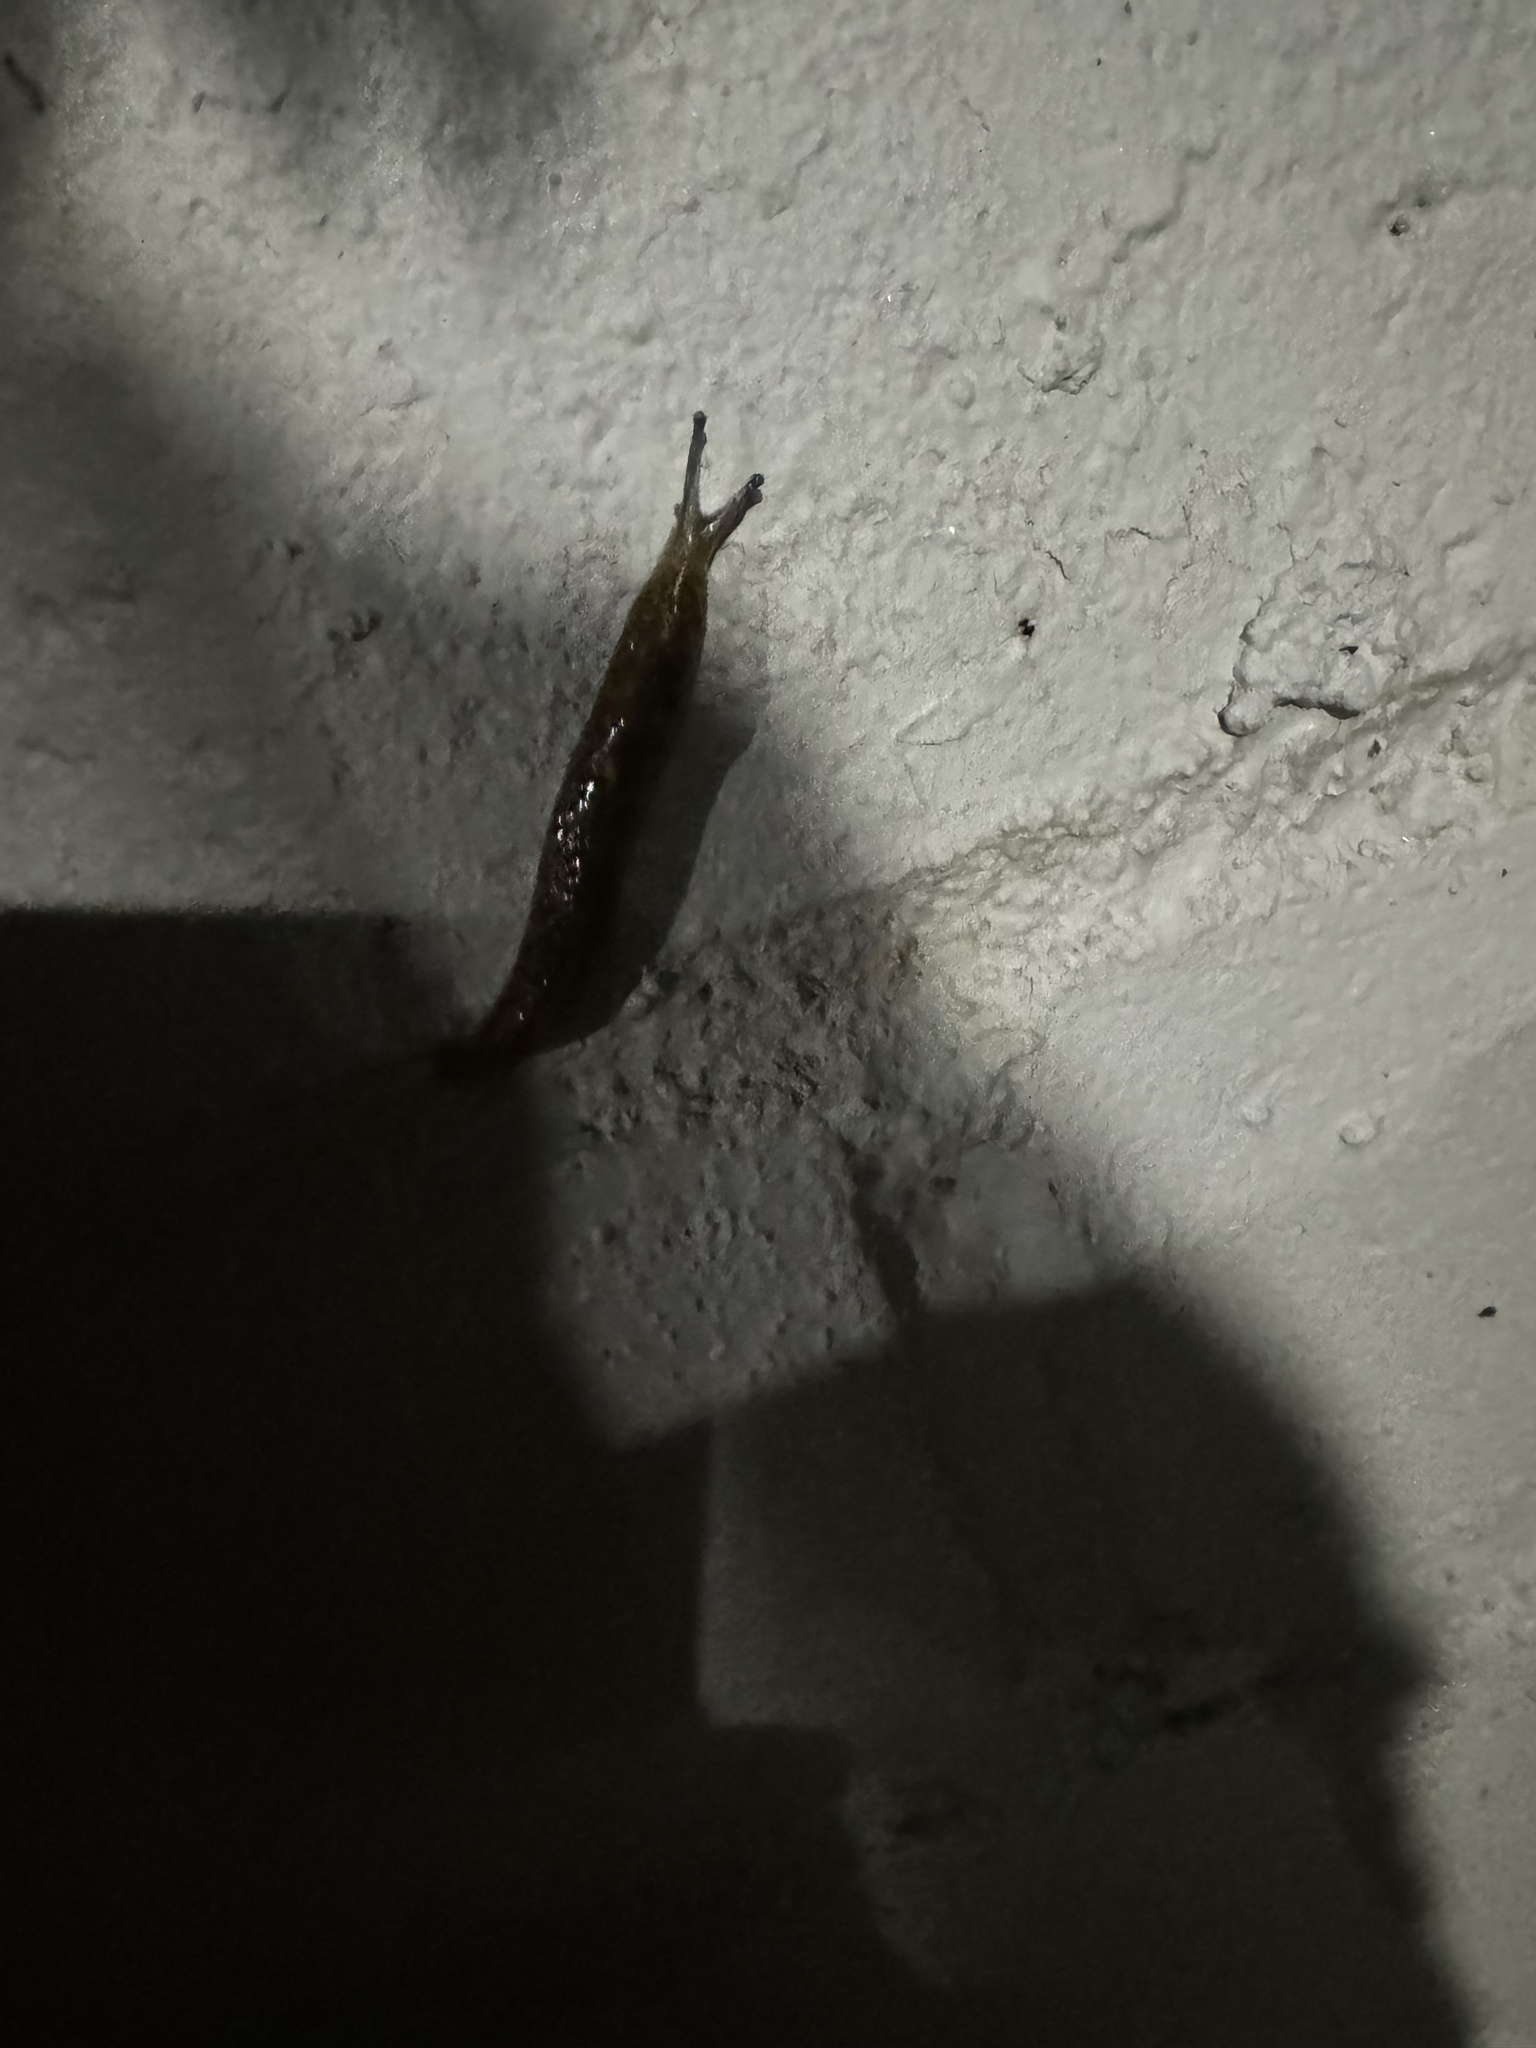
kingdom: Animalia
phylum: Mollusca
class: Gastropoda
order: Stylommatophora
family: Limacidae
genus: Limacus
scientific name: Limacus flavus
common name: Yellow gardenslug
